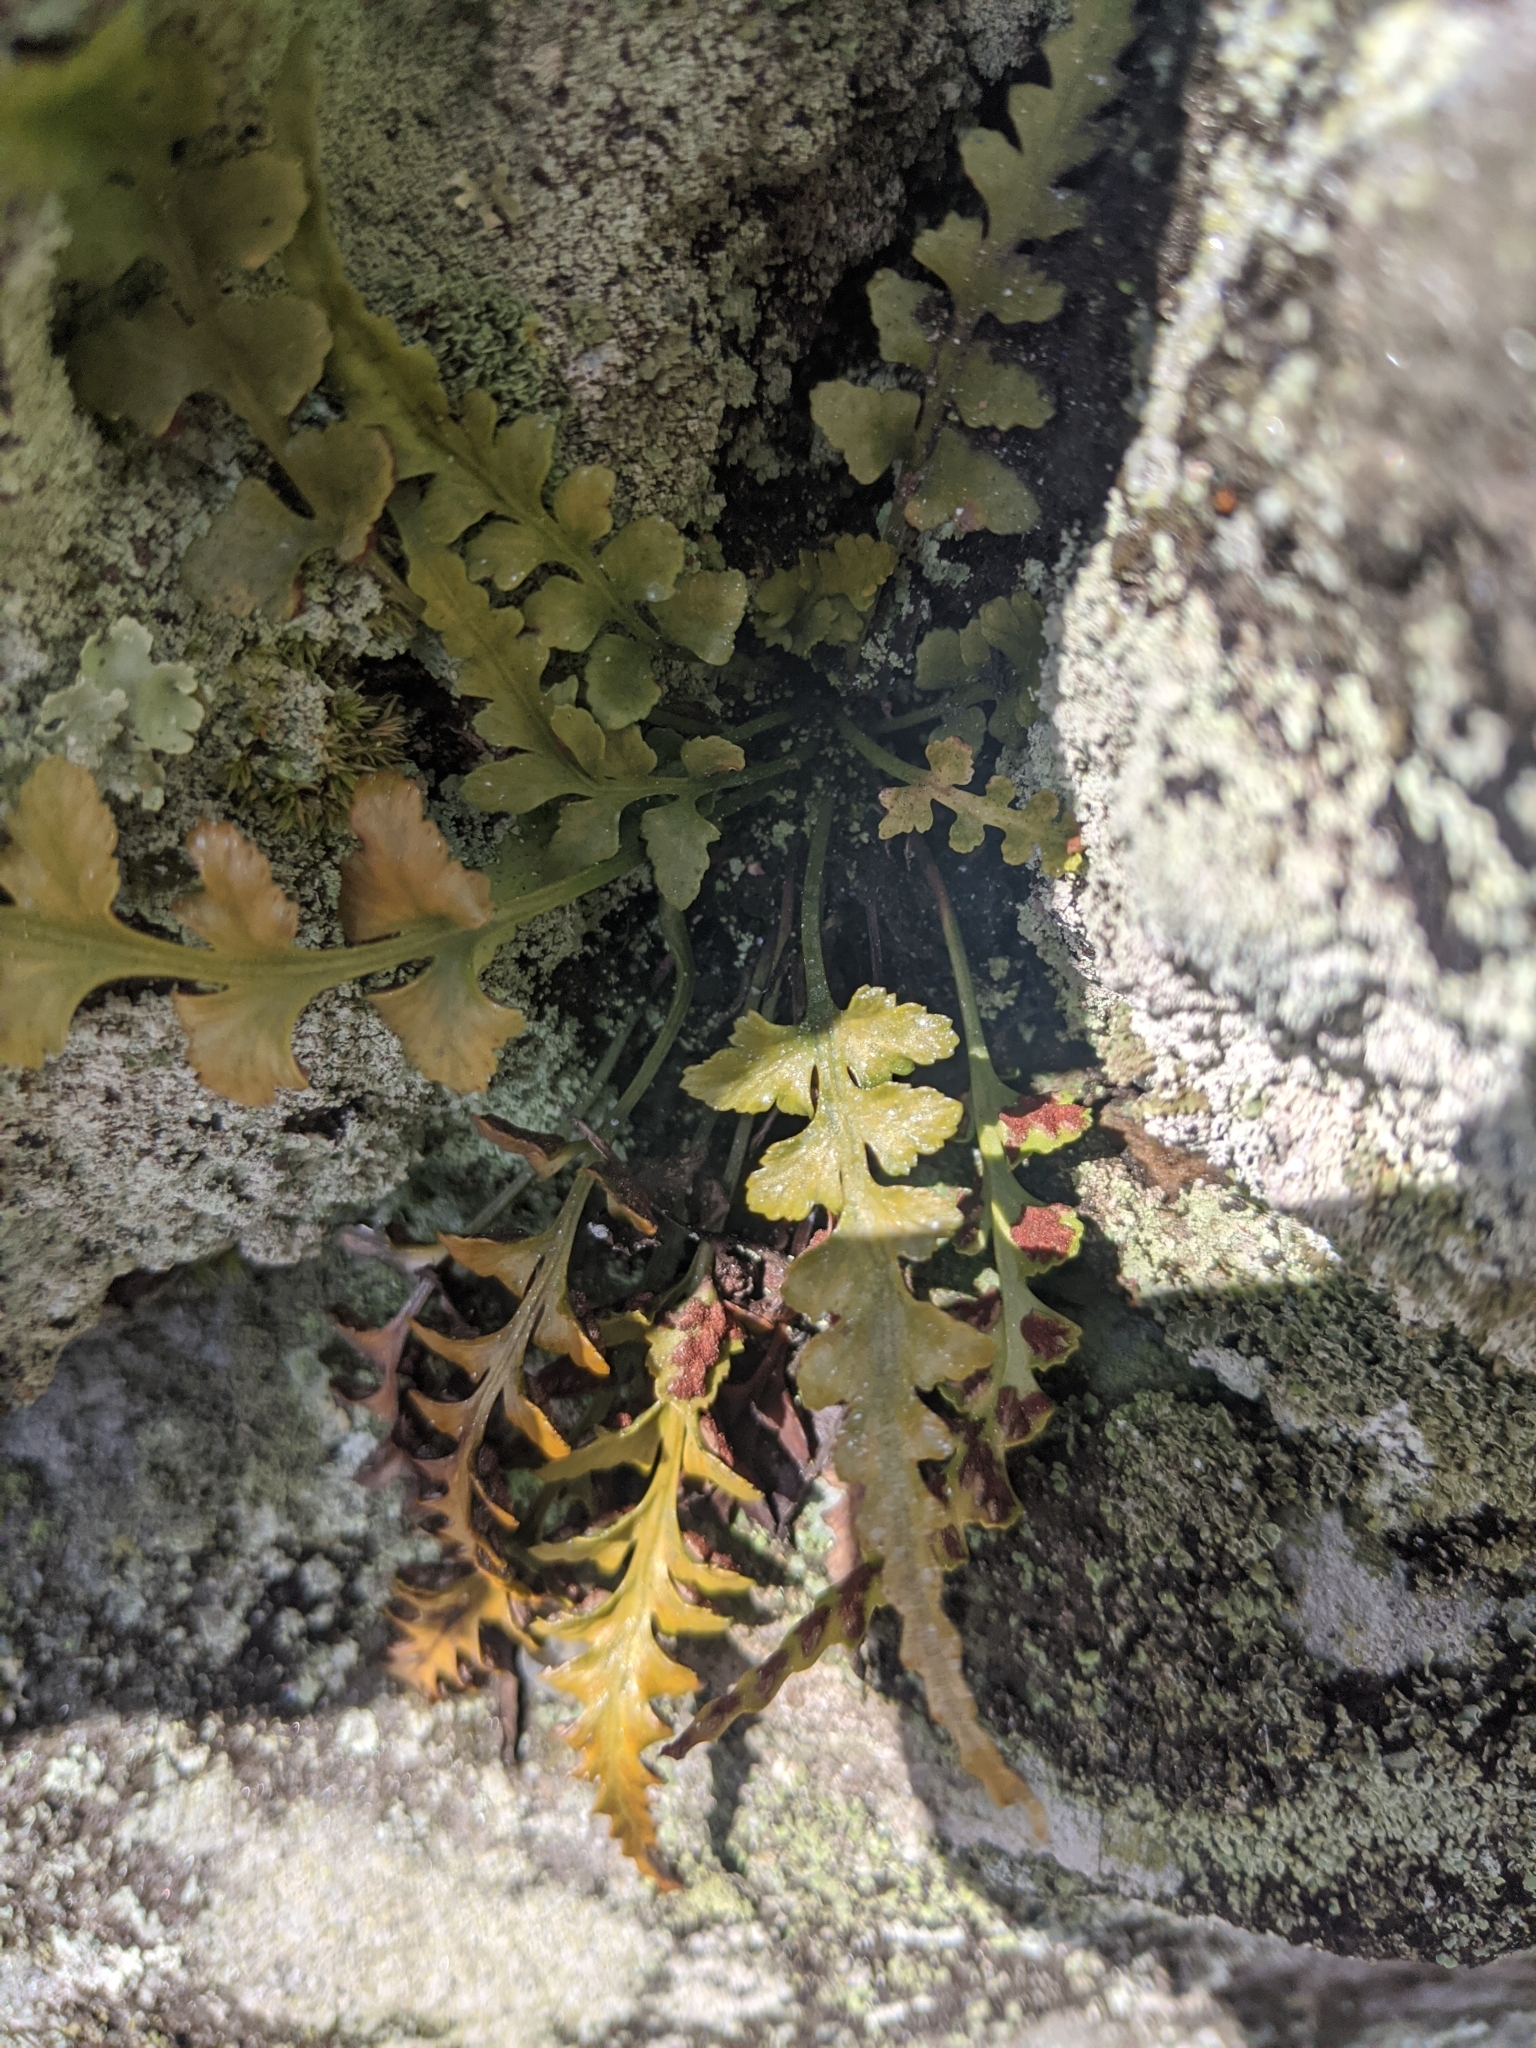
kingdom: Plantae
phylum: Tracheophyta
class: Polypodiopsida
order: Polypodiales
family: Aspleniaceae
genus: Asplenium
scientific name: Asplenium pinnatifidum
